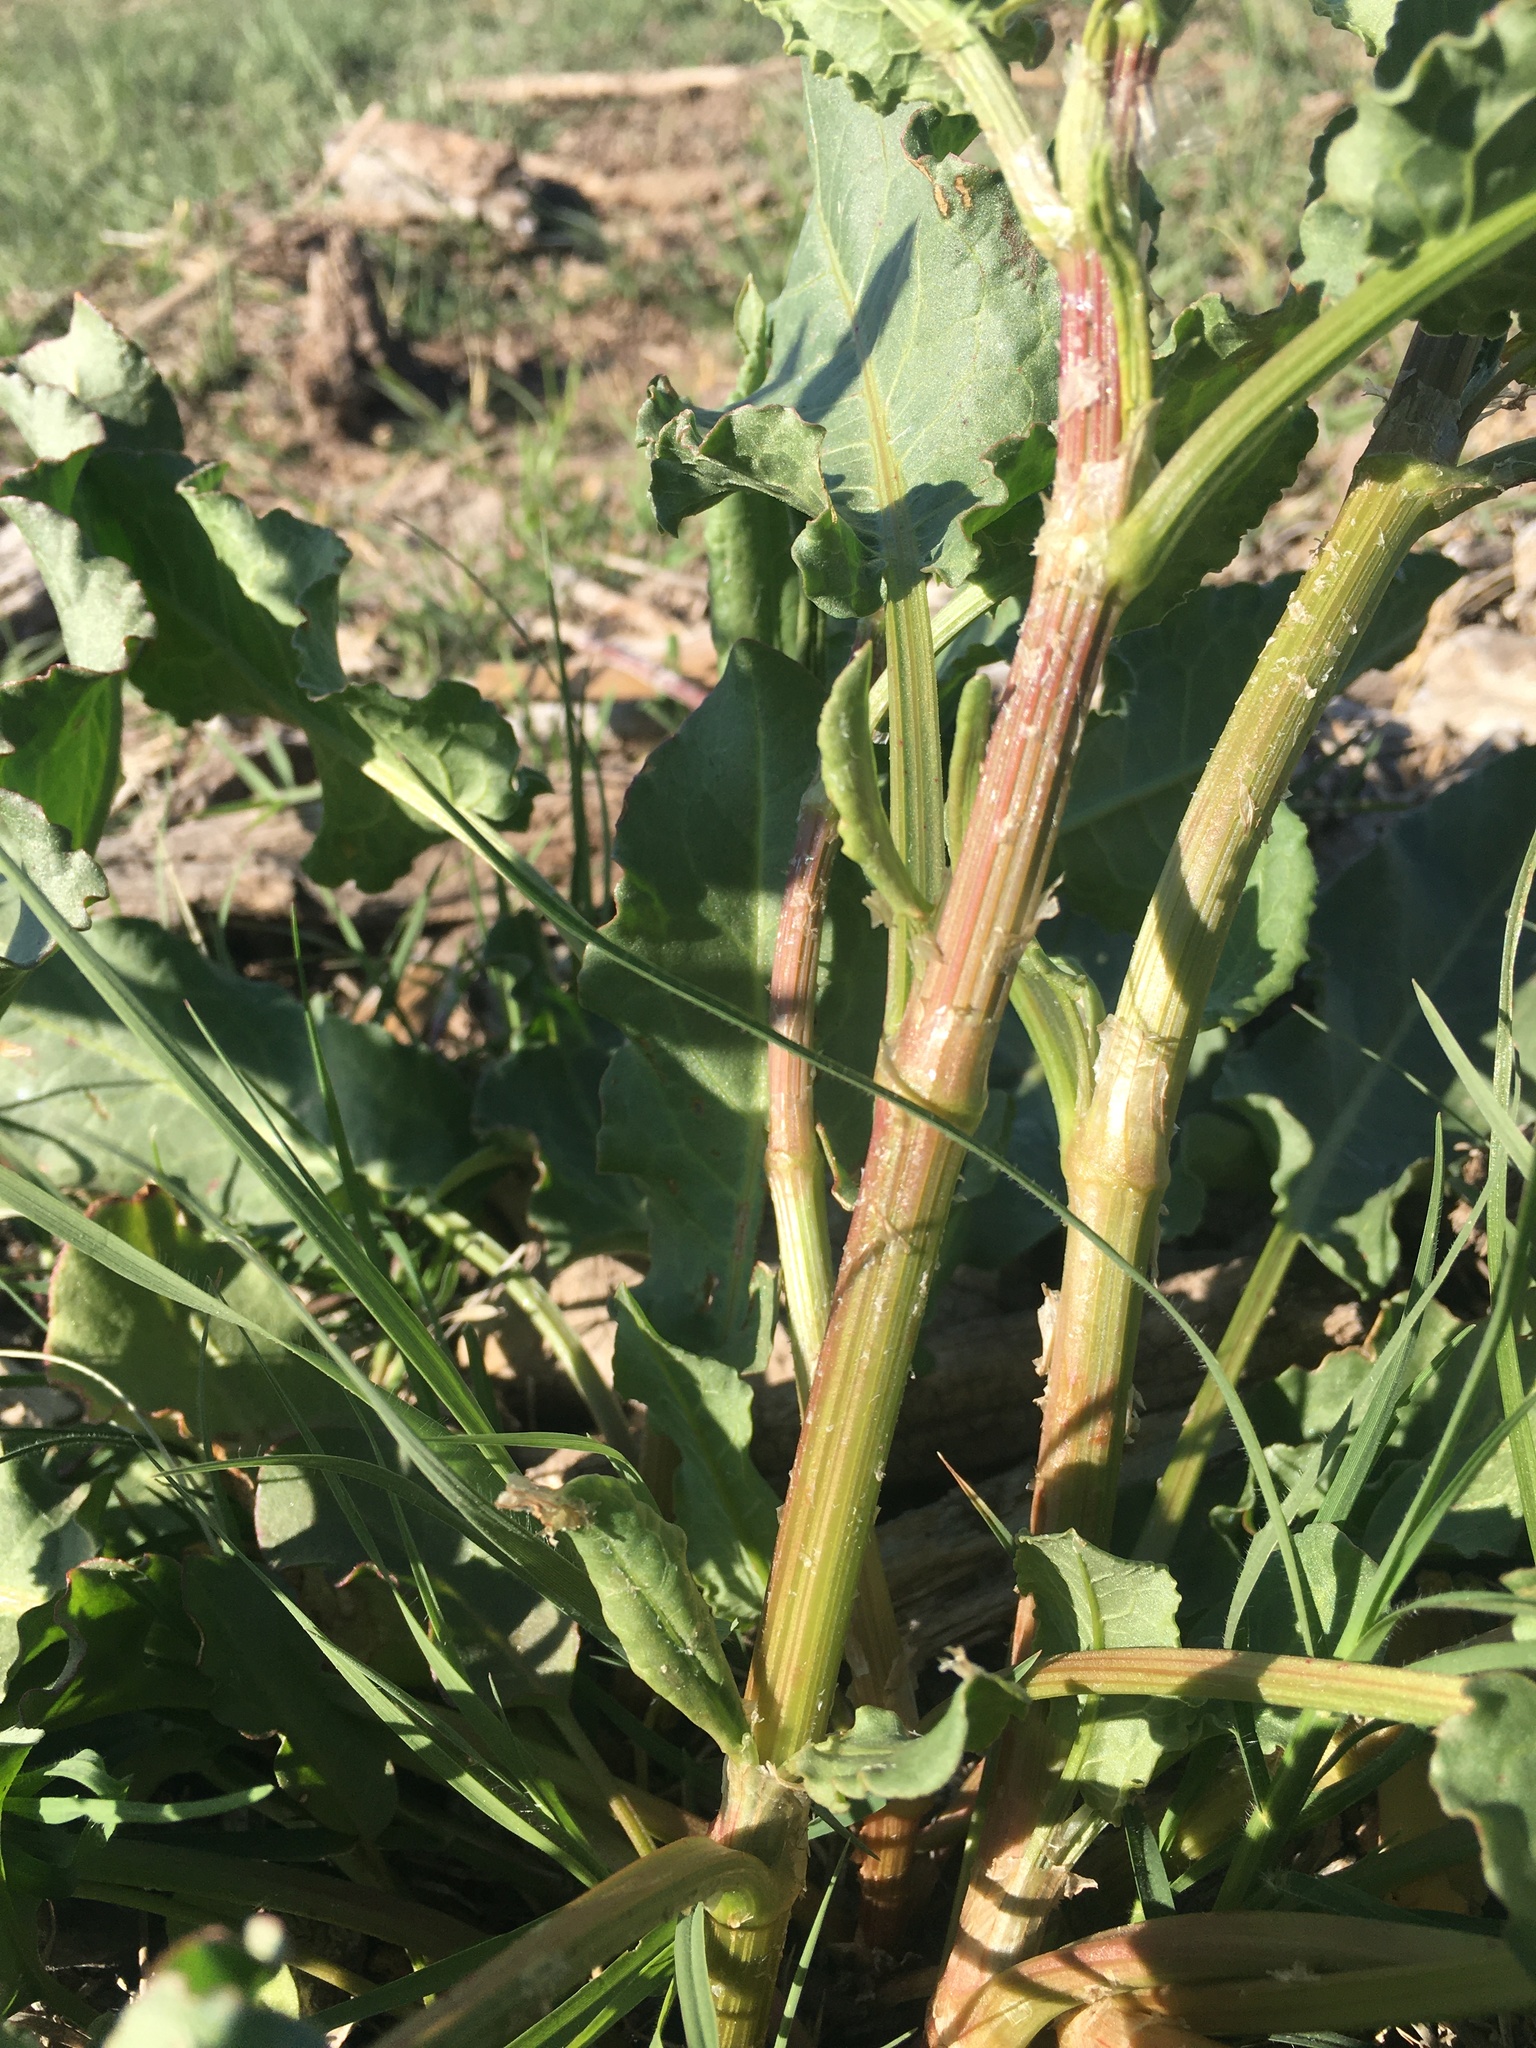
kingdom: Plantae
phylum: Tracheophyta
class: Magnoliopsida
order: Caryophyllales
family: Polygonaceae
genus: Rumex
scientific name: Rumex crispus
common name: Curled dock
